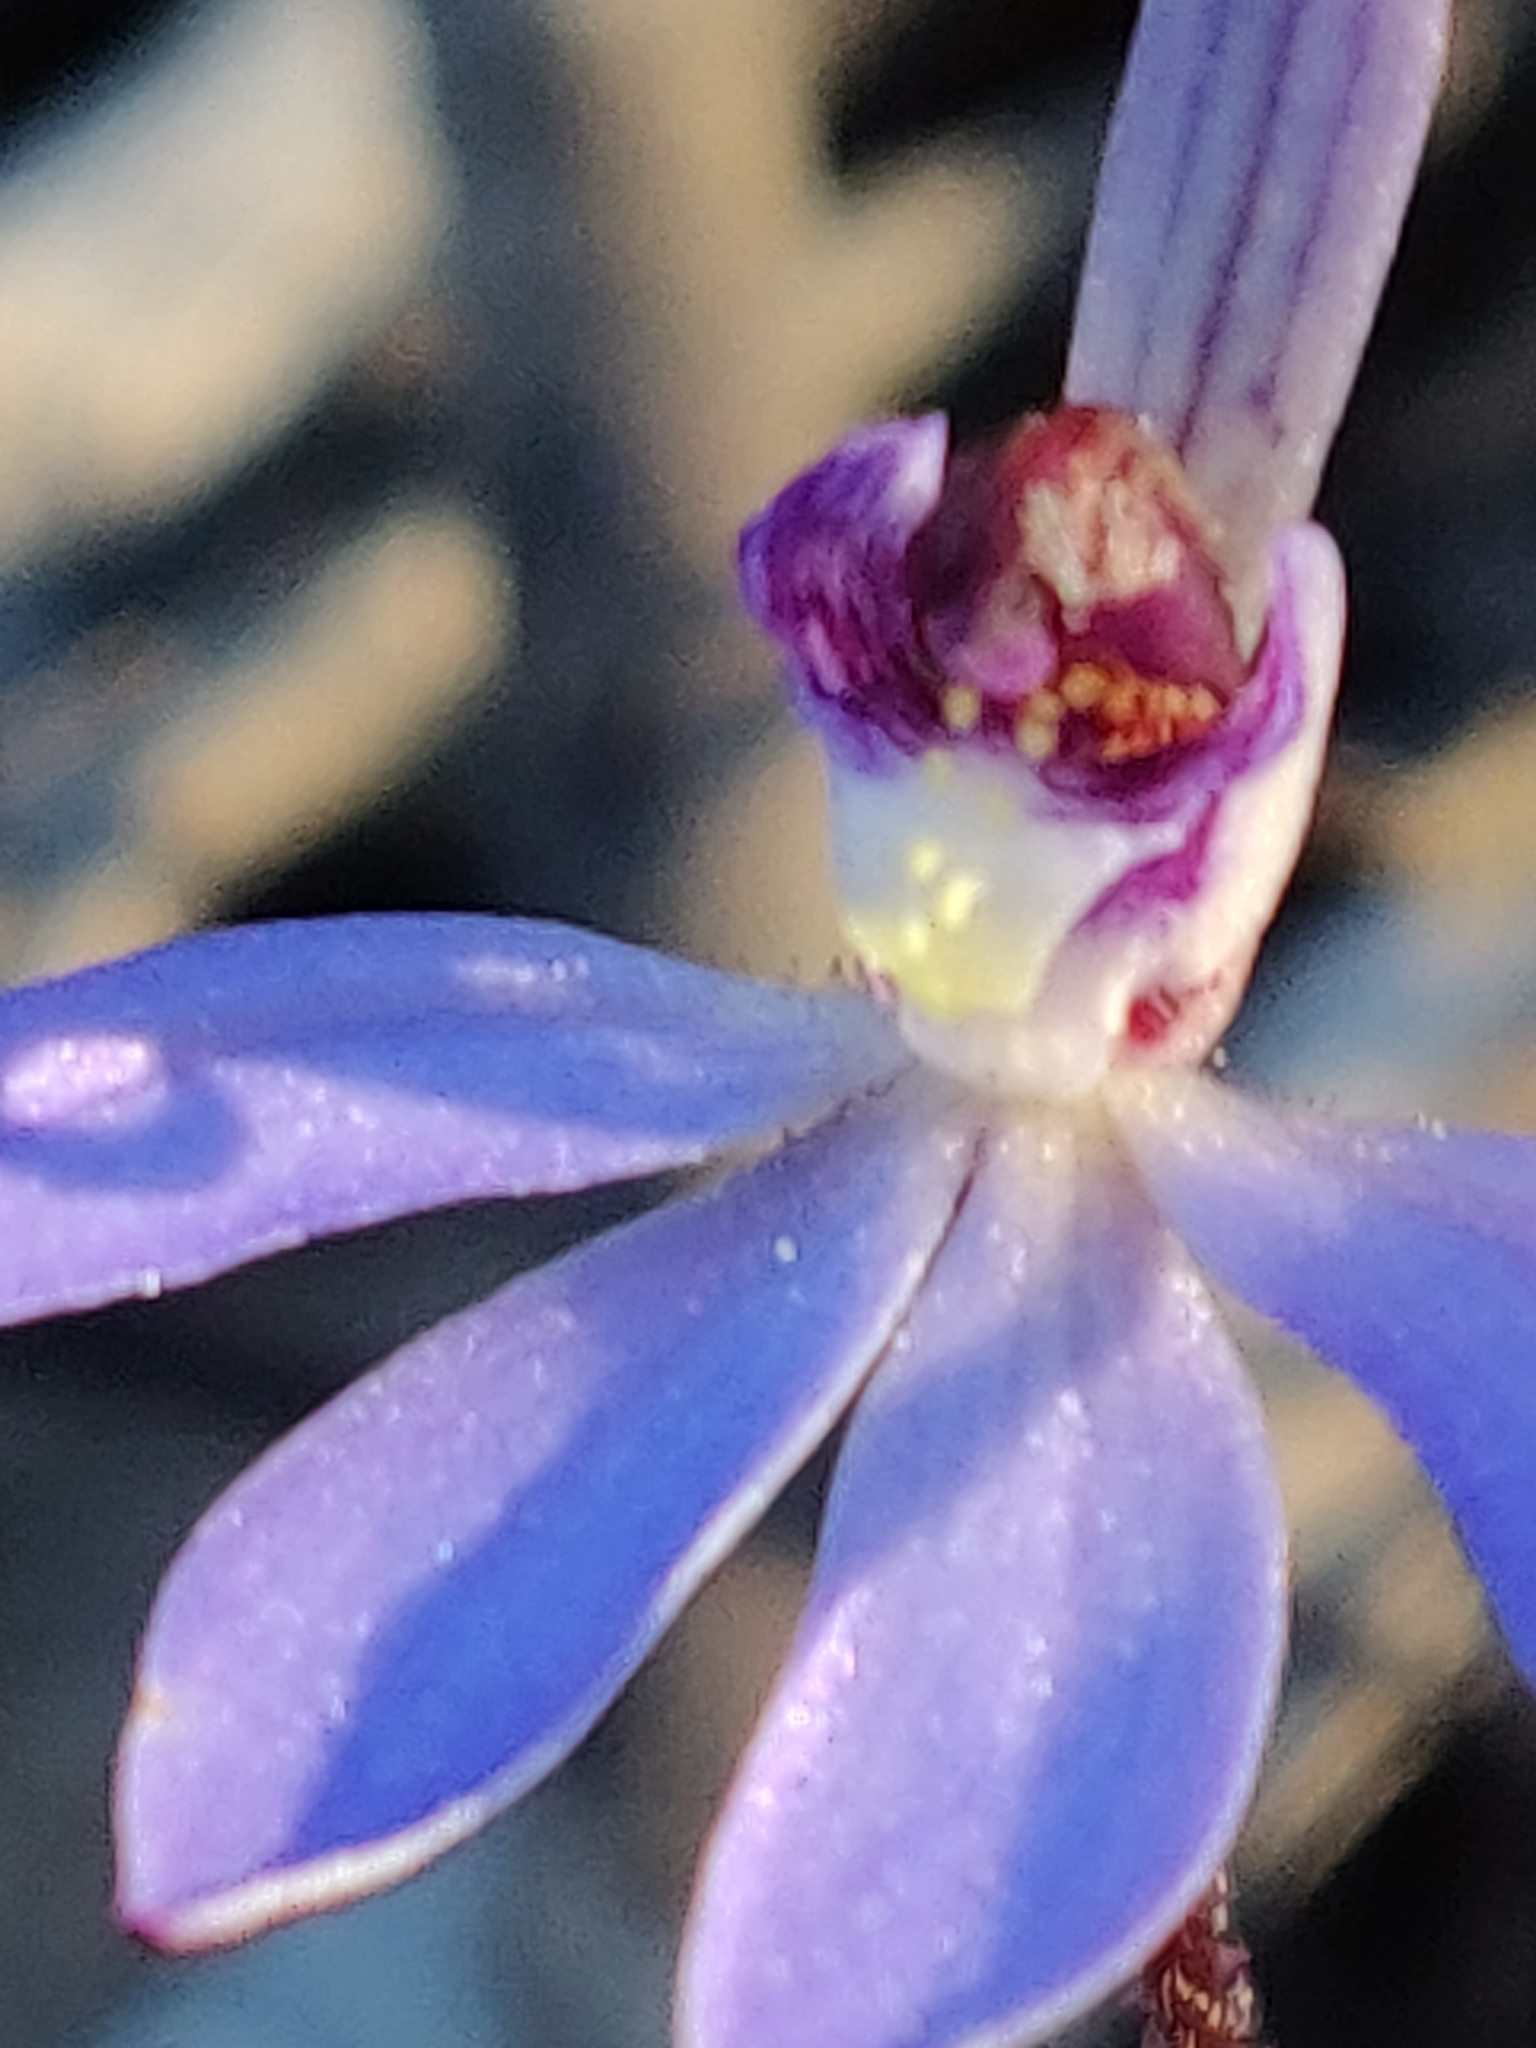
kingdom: Plantae
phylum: Tracheophyta
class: Liliopsida
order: Asparagales
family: Orchidaceae
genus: Caladenia
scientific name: Caladenia caerulea
